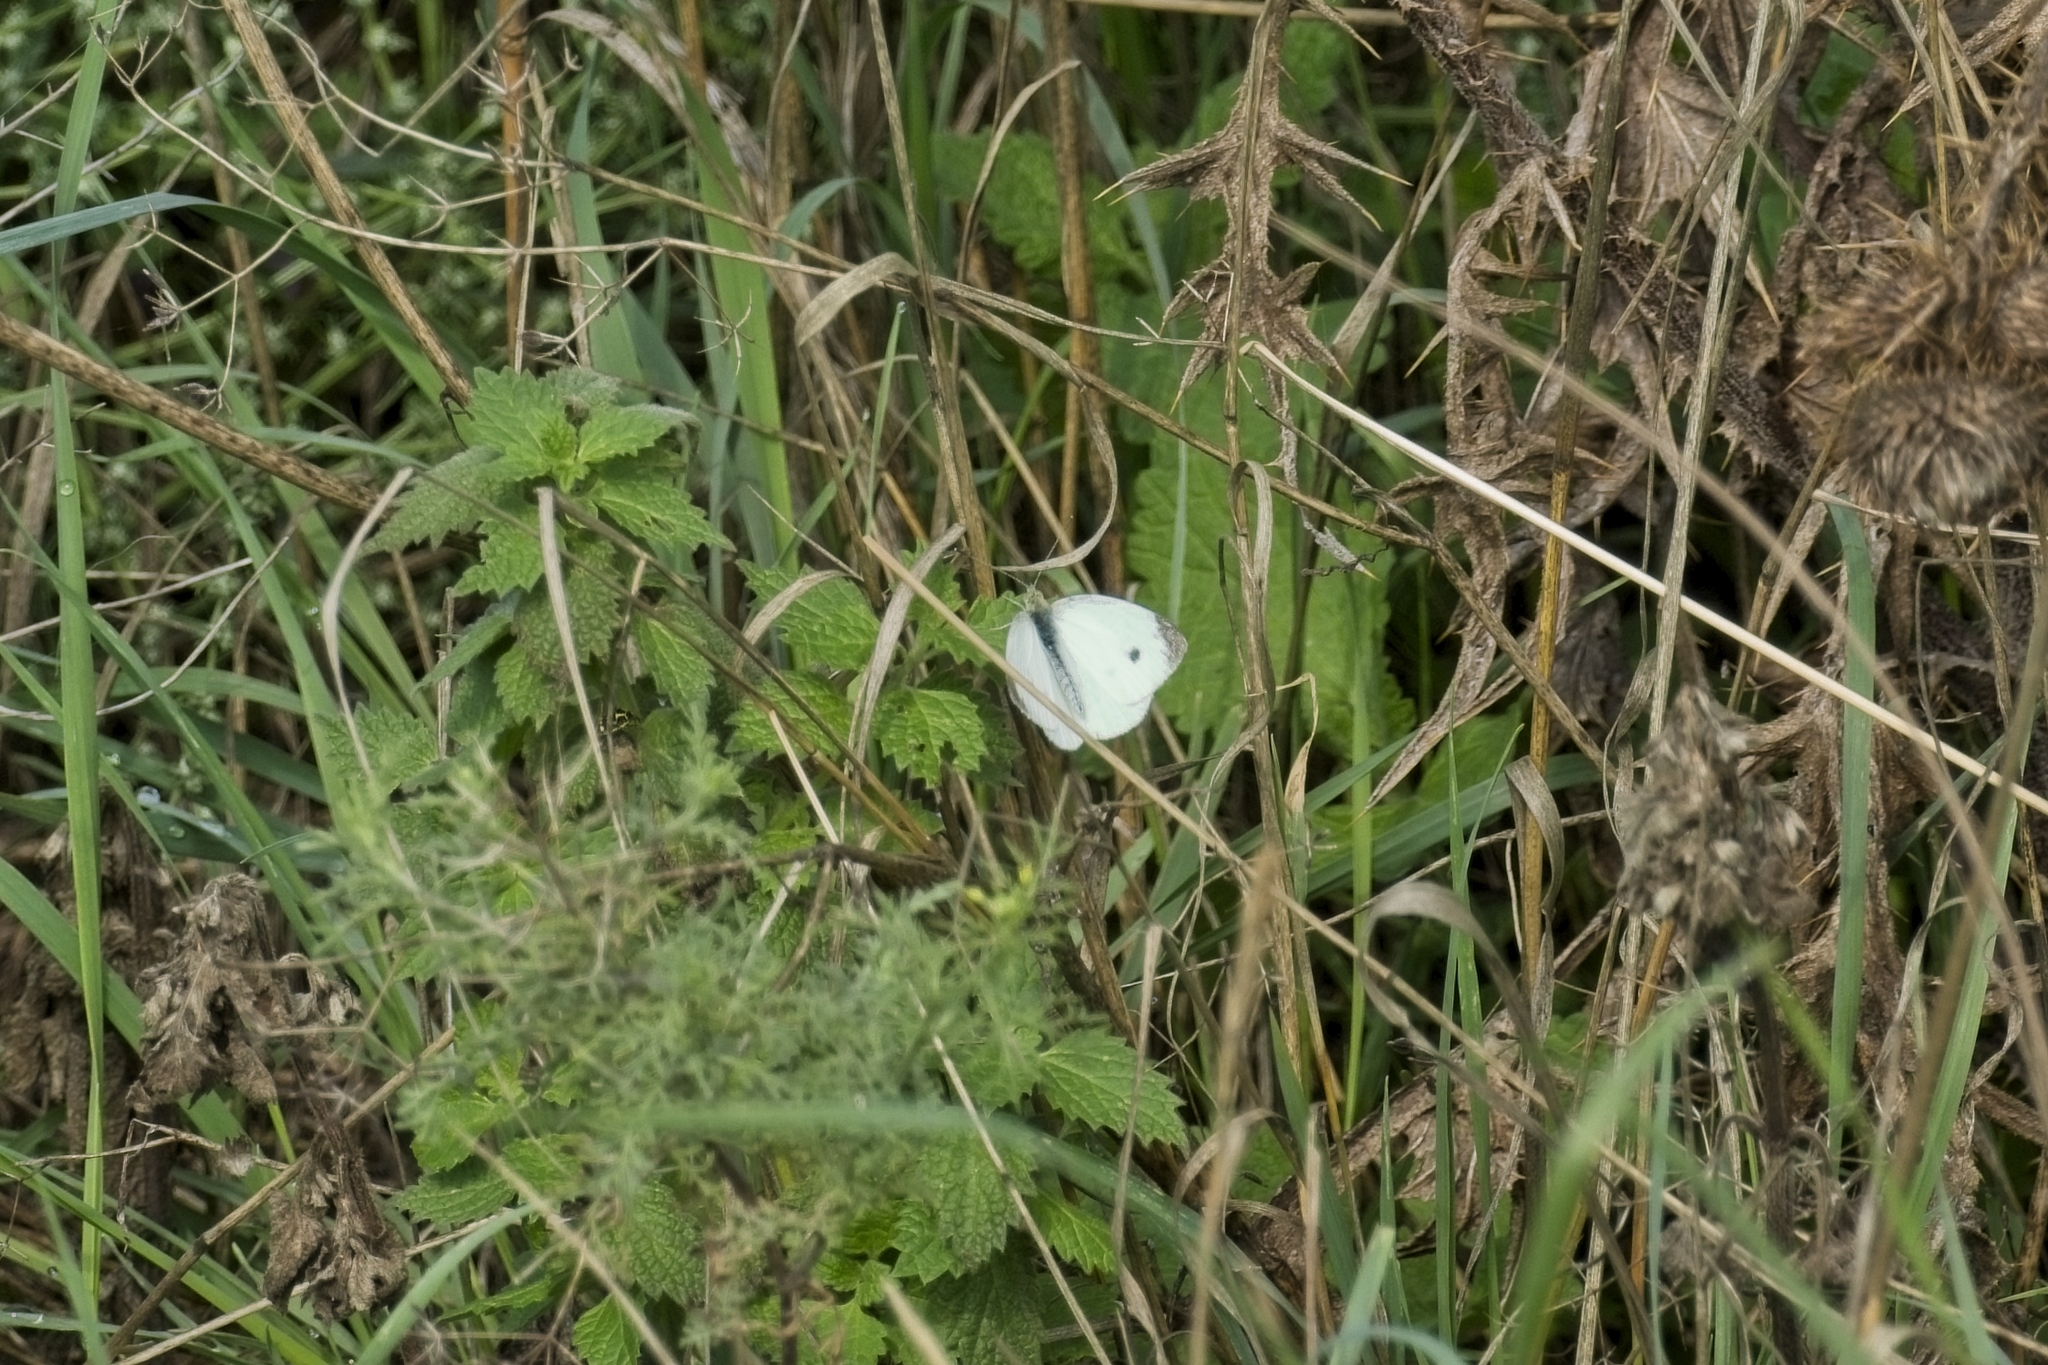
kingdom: Animalia
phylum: Arthropoda
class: Insecta
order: Lepidoptera
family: Pieridae
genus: Pieris
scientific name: Pieris rapae
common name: Small white
